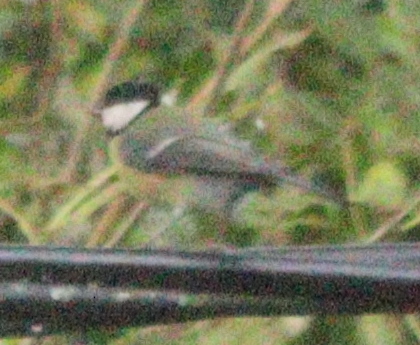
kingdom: Animalia
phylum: Chordata
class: Aves
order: Passeriformes
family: Paridae
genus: Parus
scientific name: Parus major
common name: Great tit
